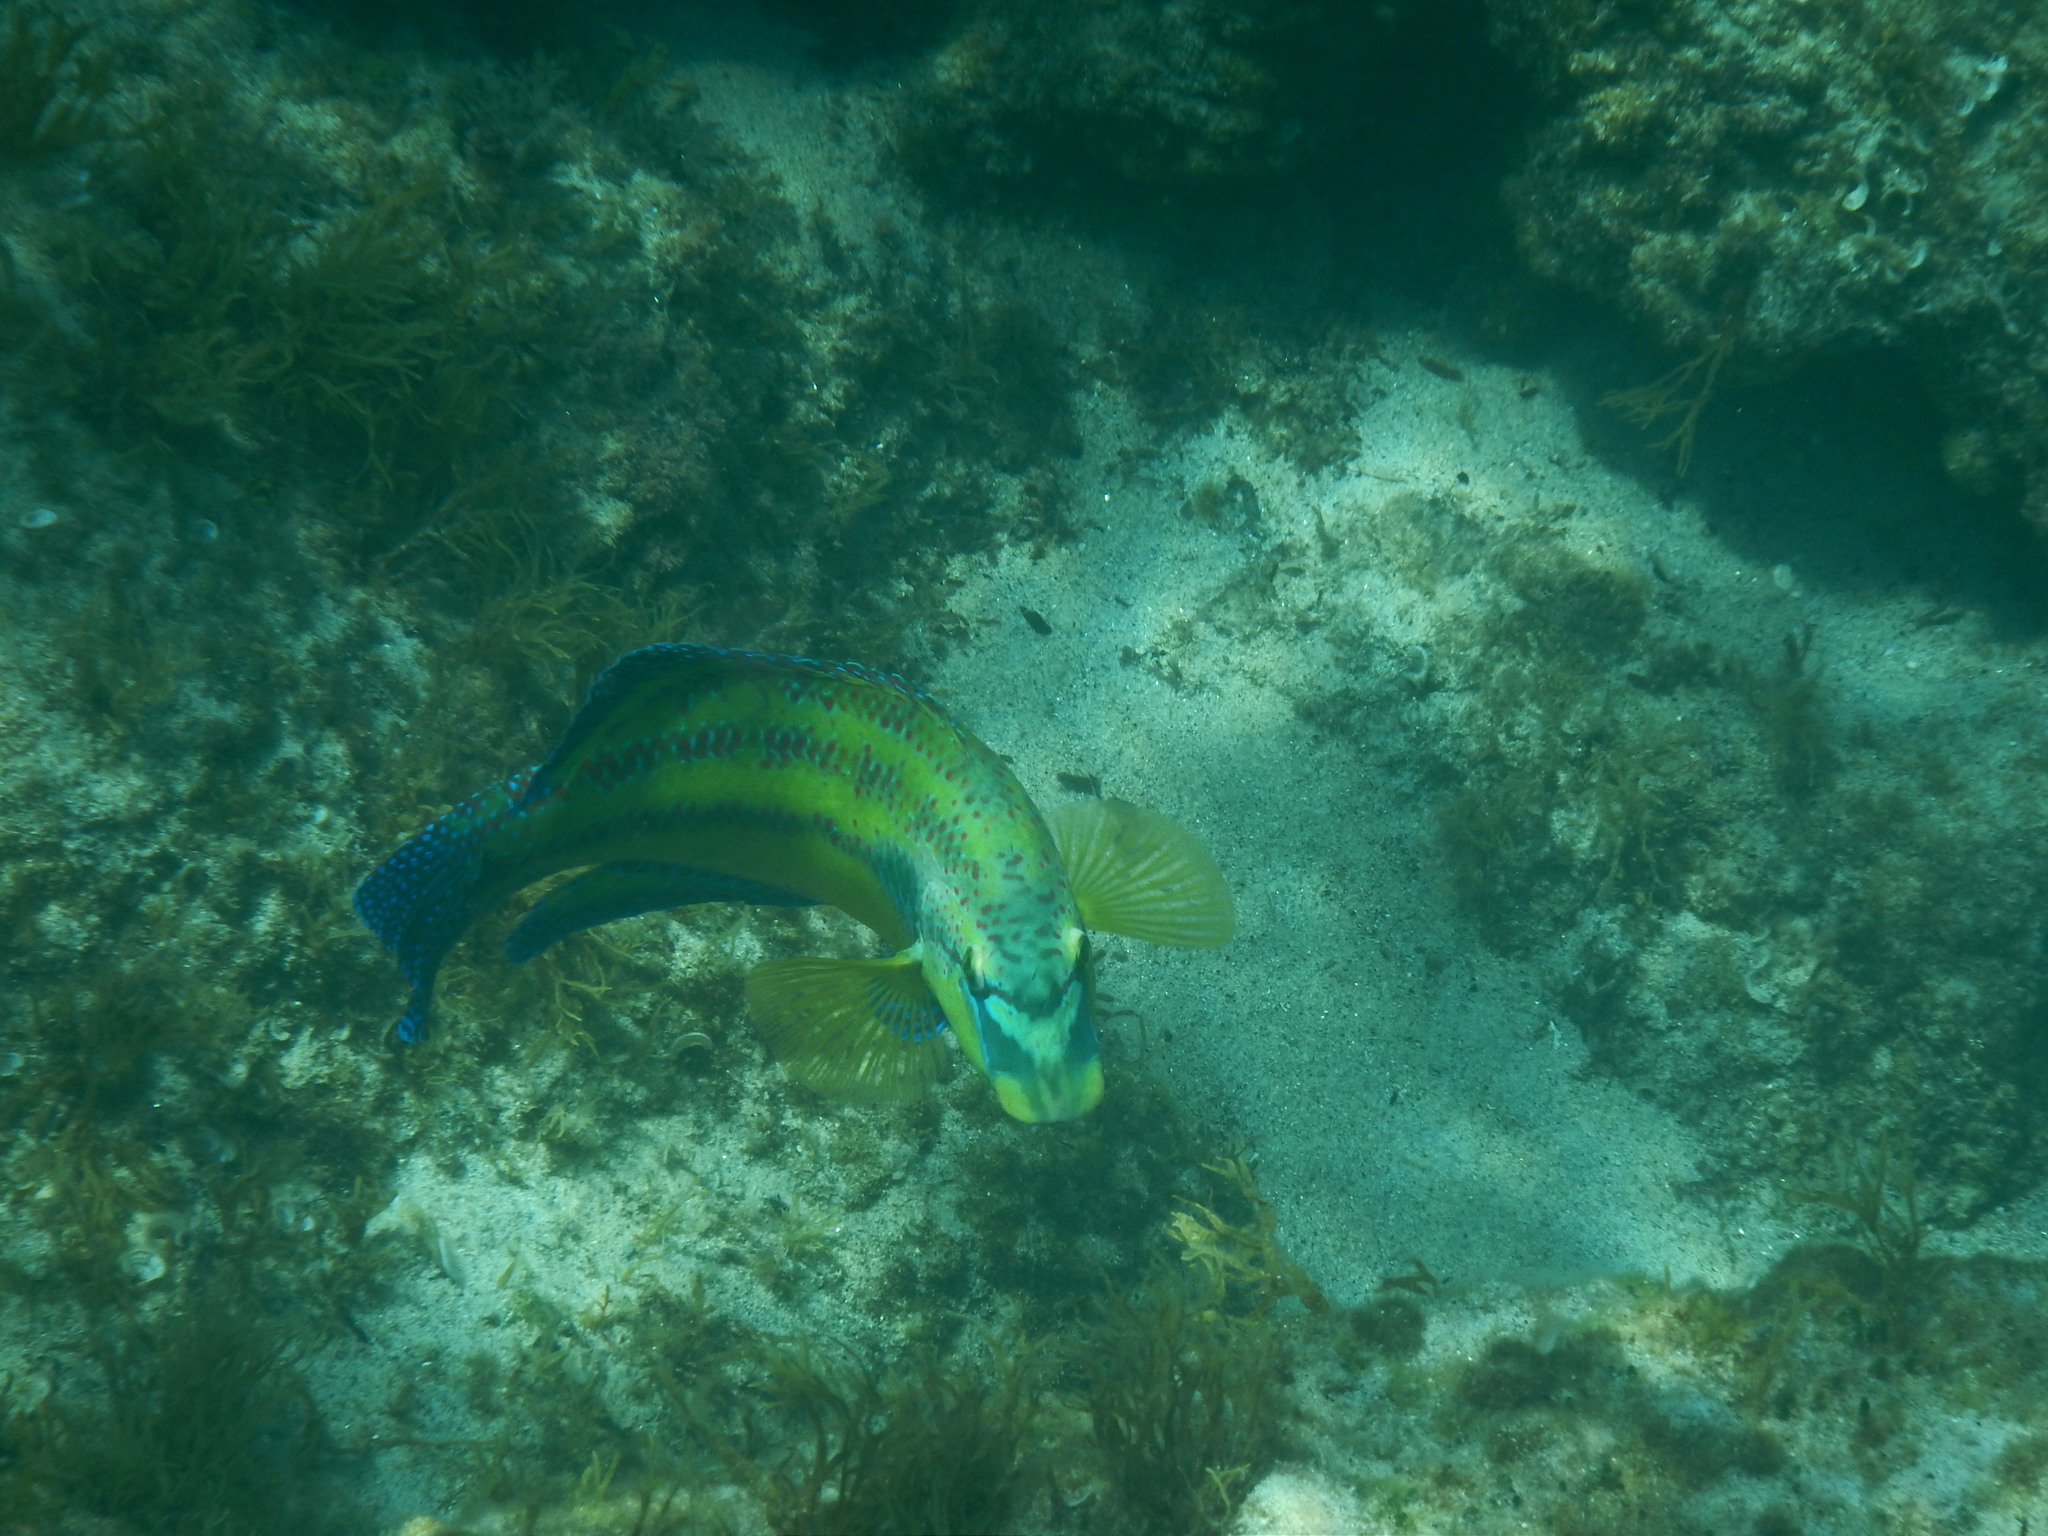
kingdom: Animalia
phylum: Chordata
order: Perciformes
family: Labridae
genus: Symphodus
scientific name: Symphodus tinca
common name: Peacock wrasse
